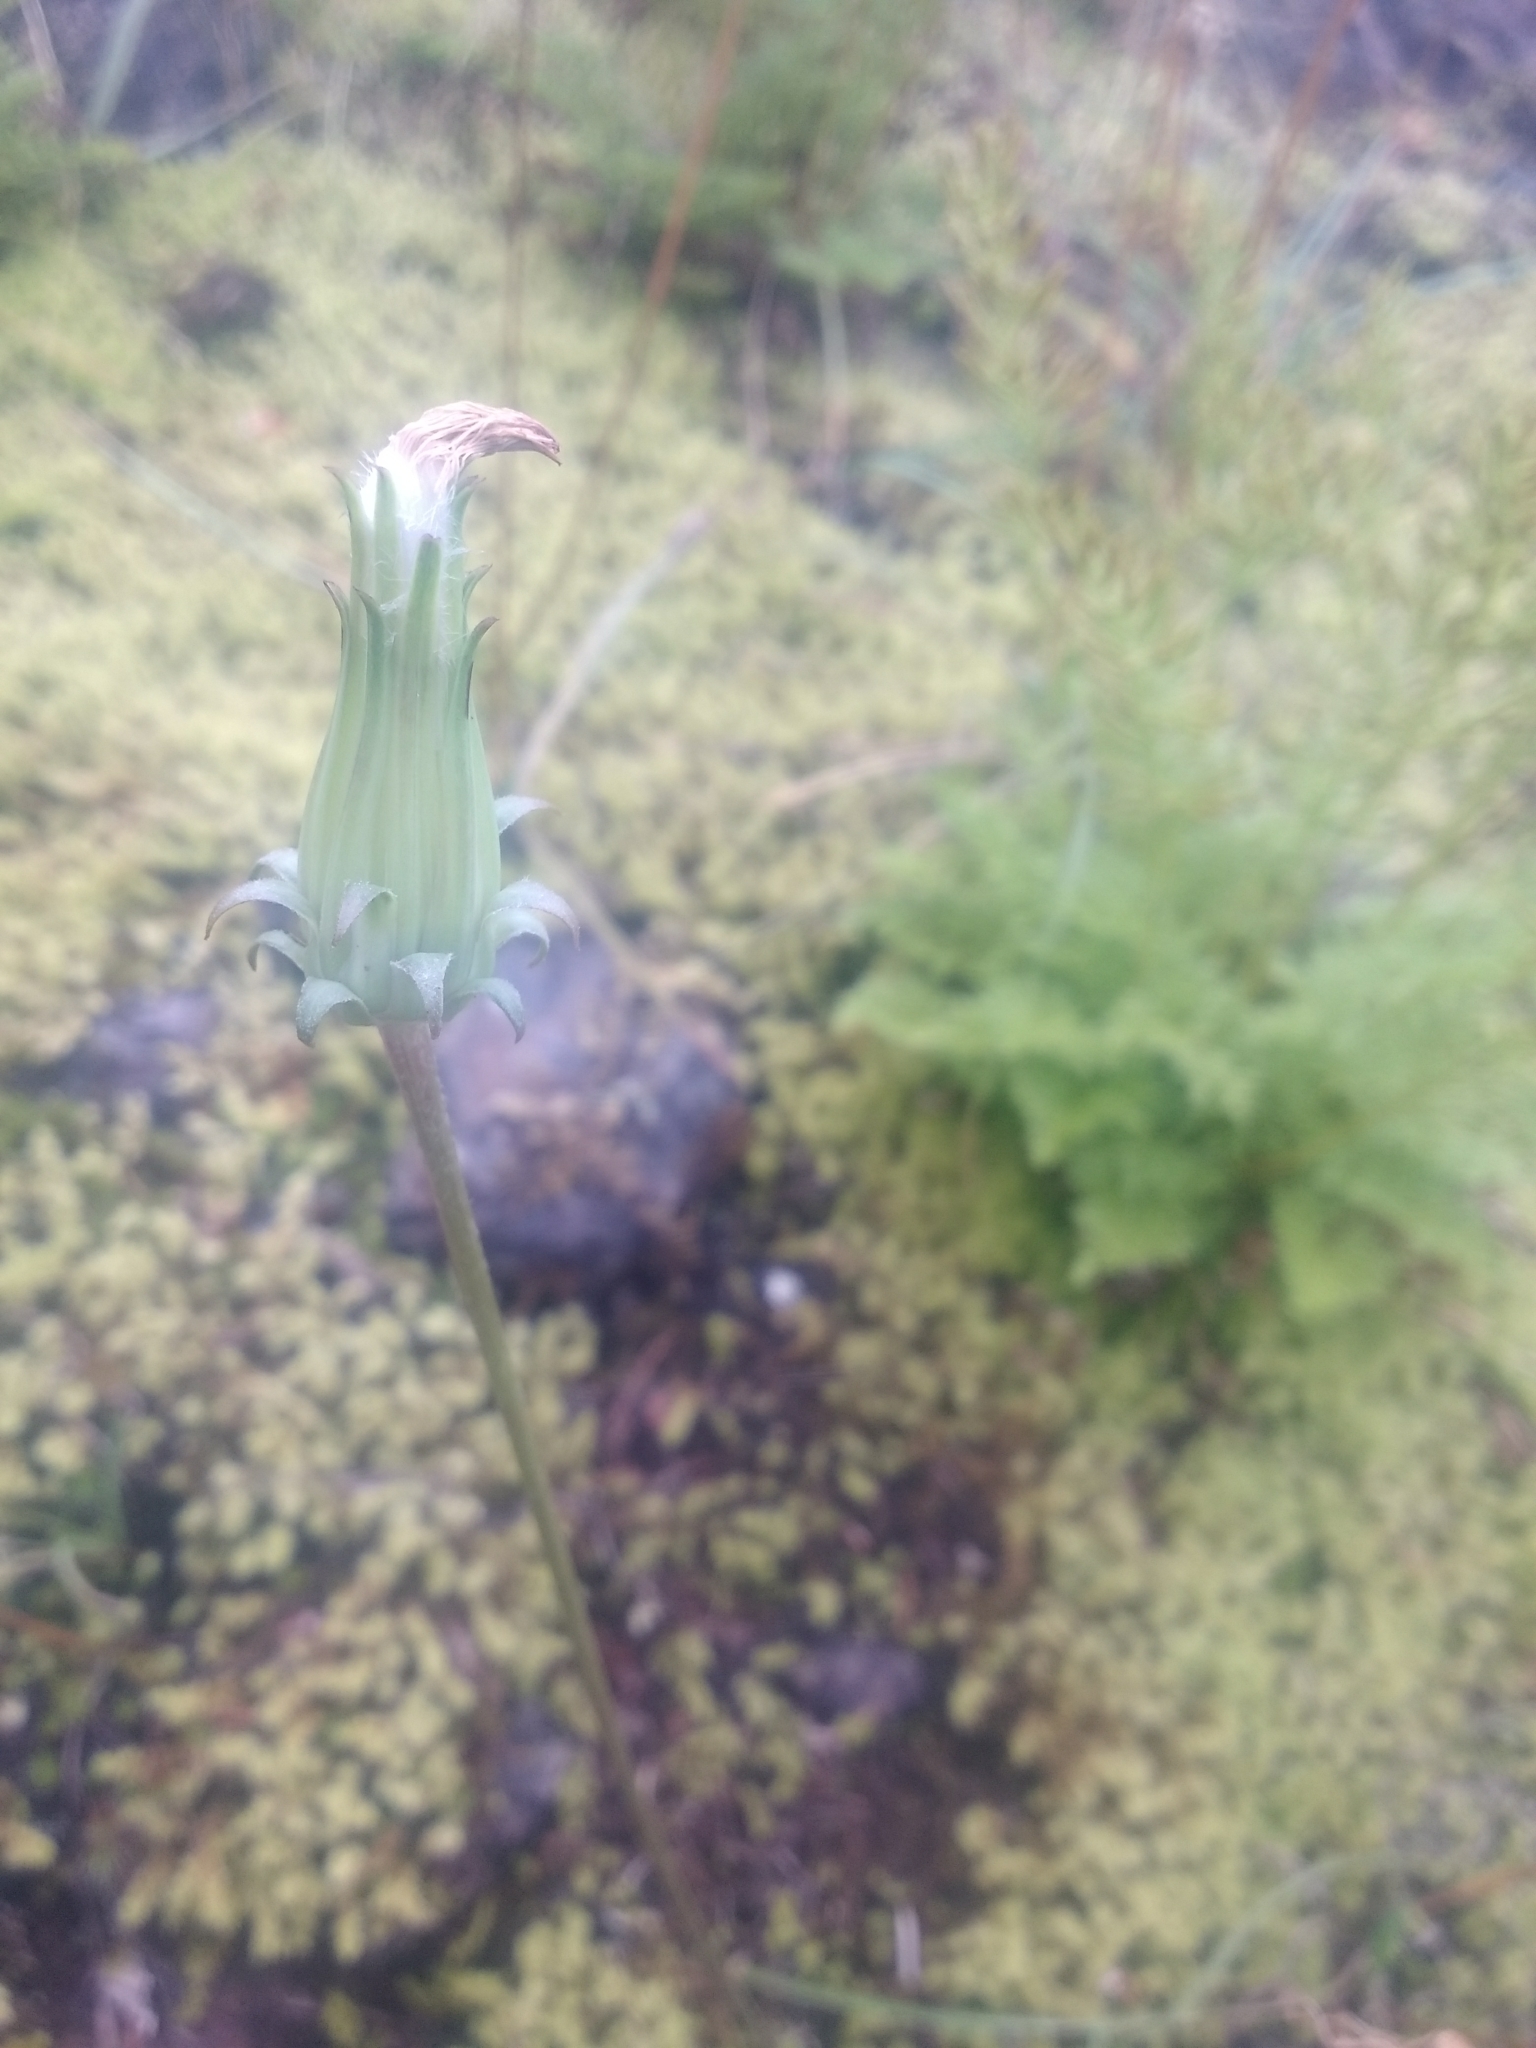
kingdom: Plantae
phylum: Tracheophyta
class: Magnoliopsida
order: Asterales
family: Asteraceae
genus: Agoseris
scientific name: Agoseris grandiflora
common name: Grassland agoseris
